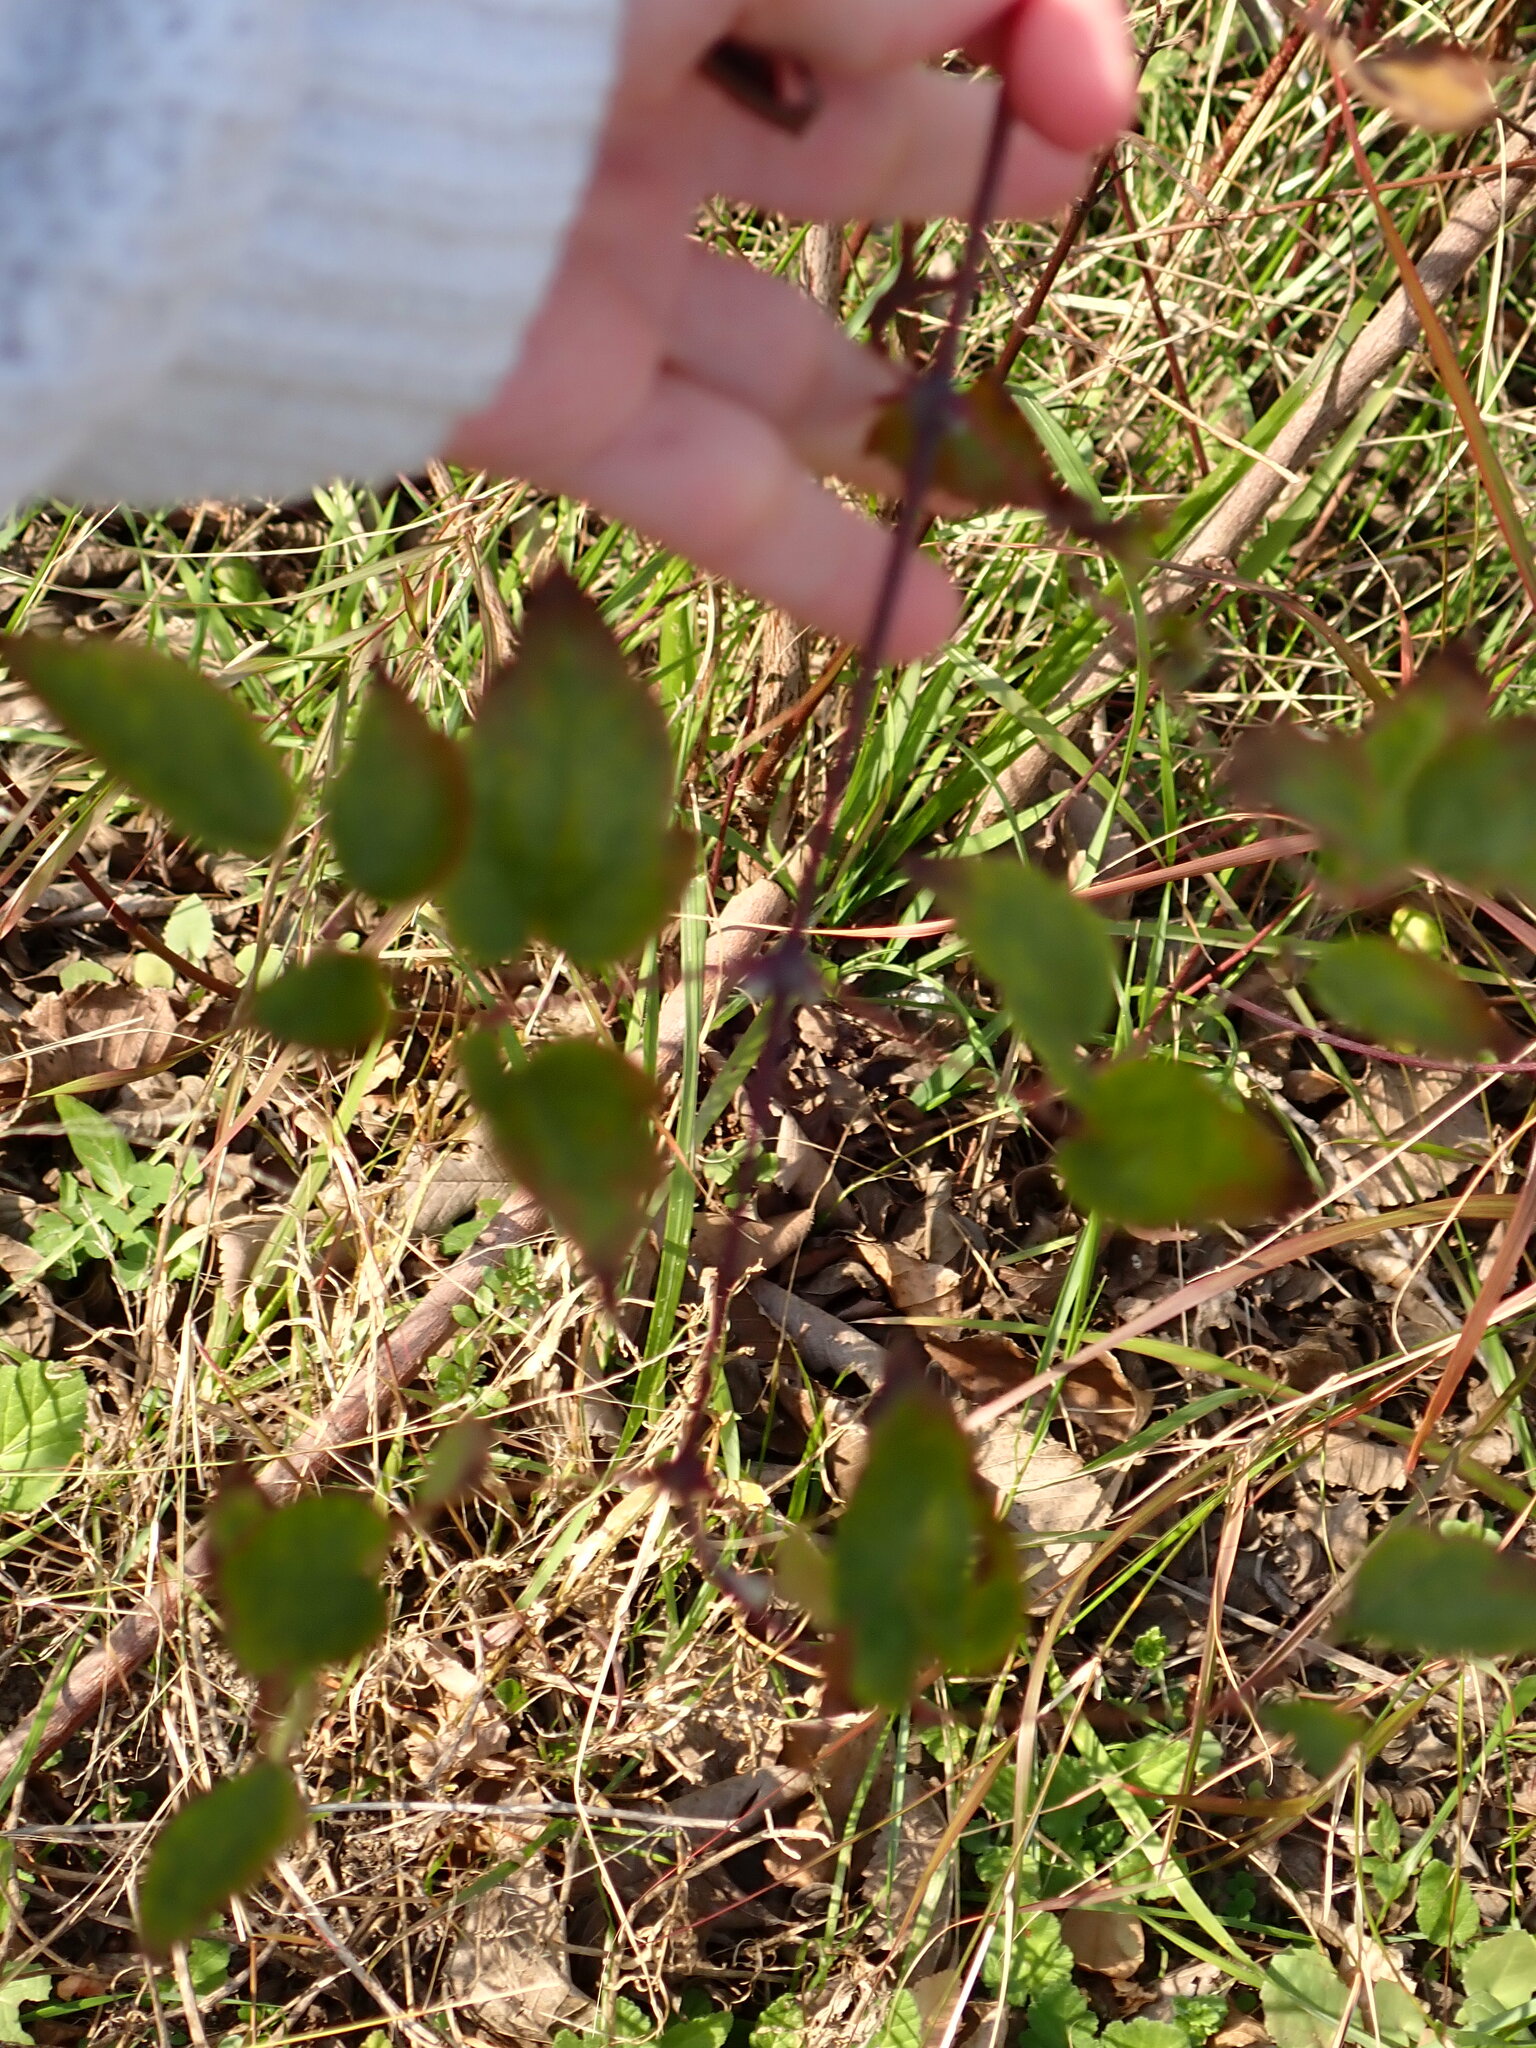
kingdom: Plantae
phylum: Tracheophyta
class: Magnoliopsida
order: Ranunculales
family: Ranunculaceae
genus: Clematis
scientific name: Clematis vitalba
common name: Evergreen clematis
